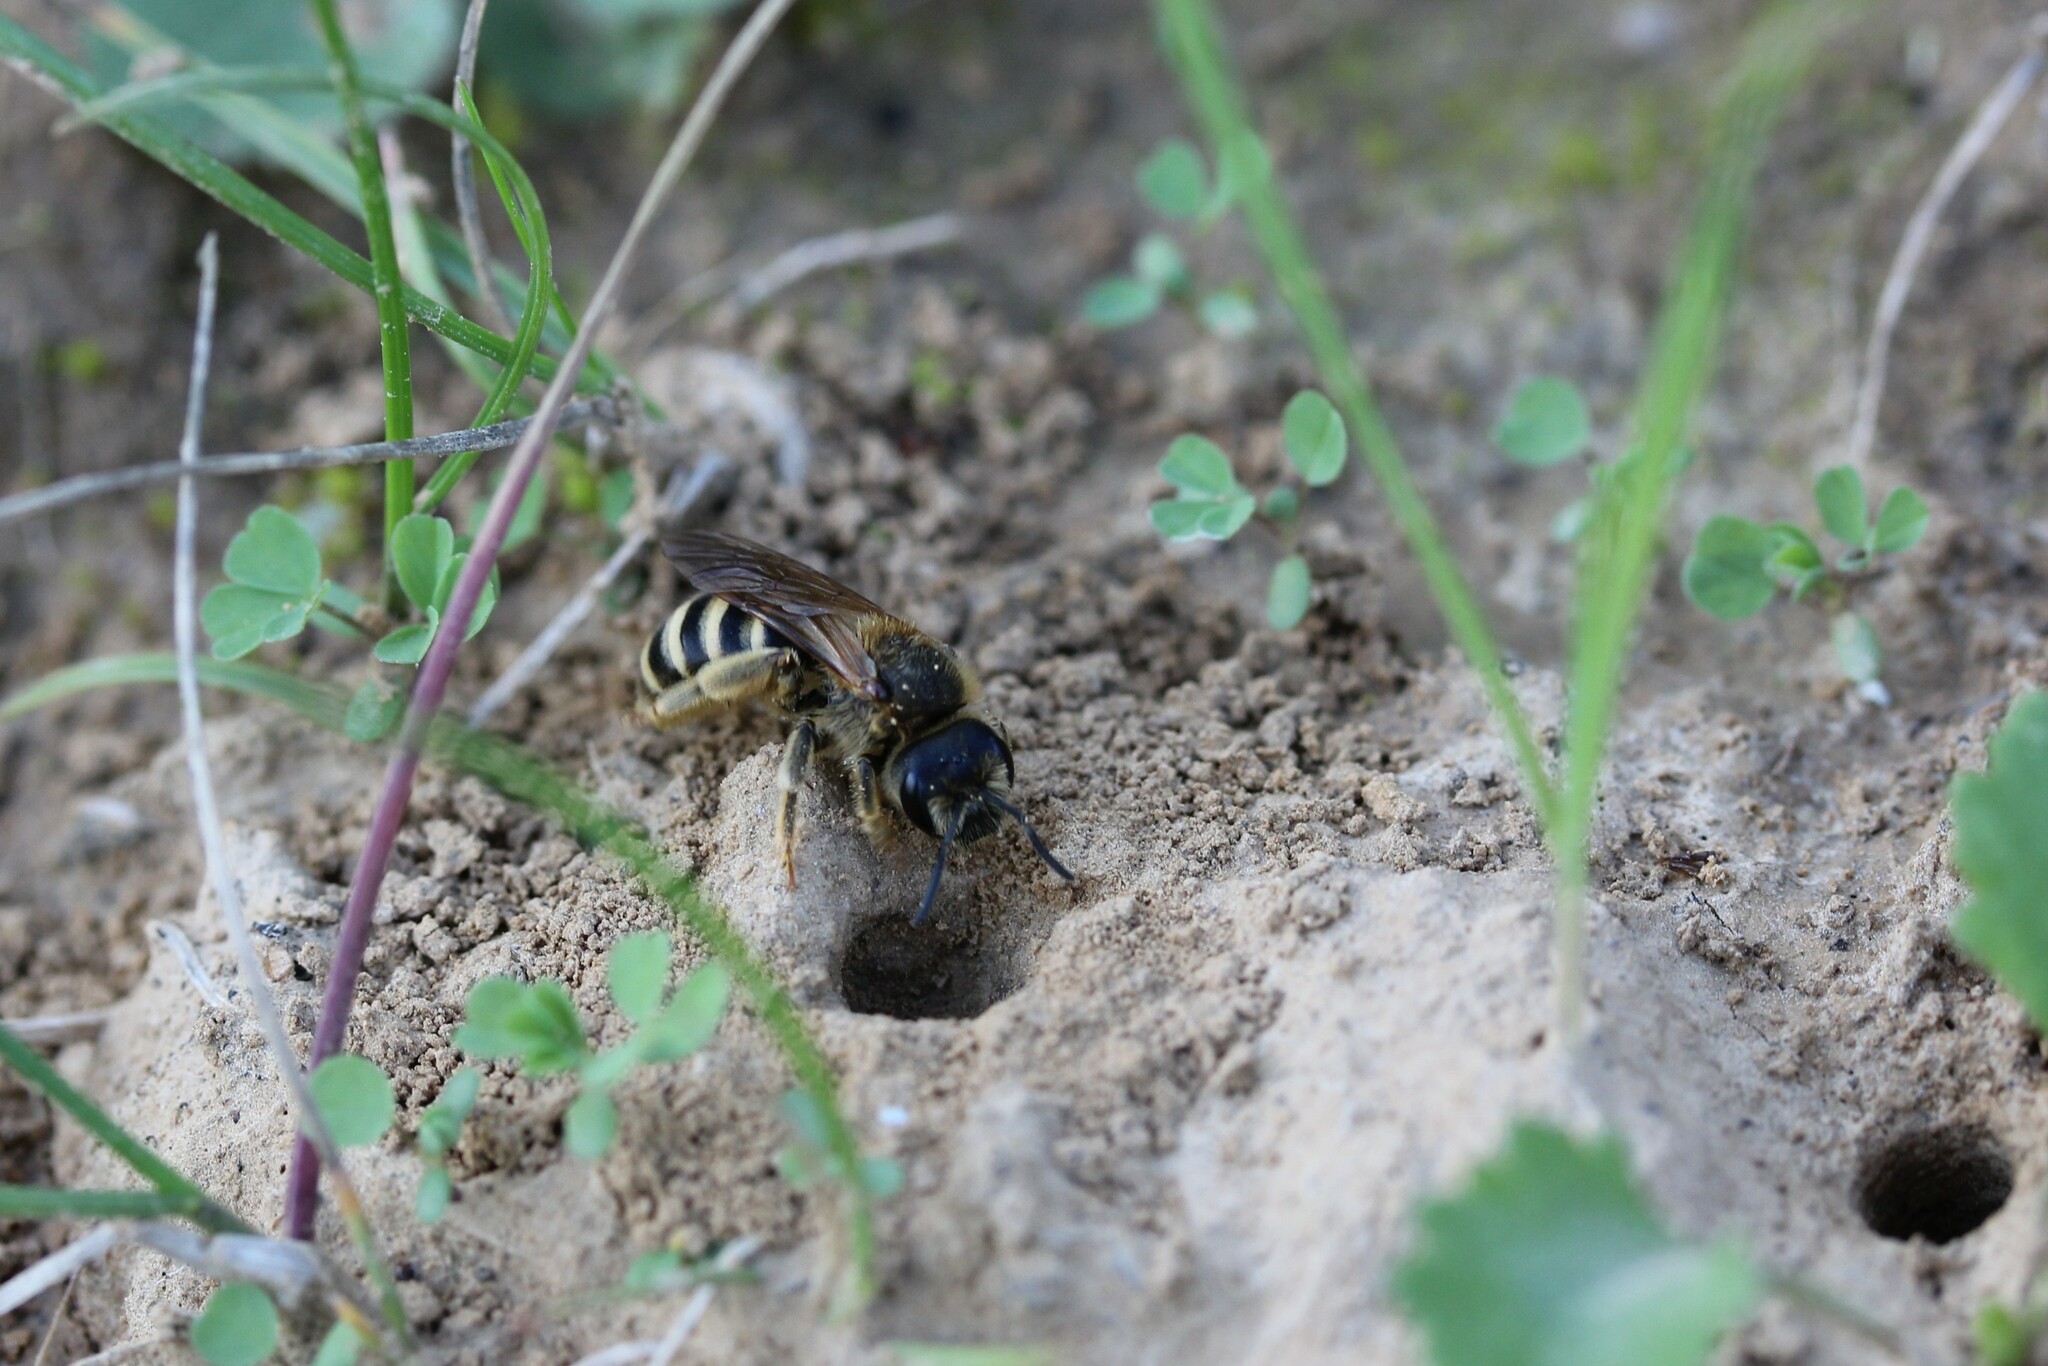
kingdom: Animalia
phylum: Arthropoda
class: Insecta
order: Hymenoptera
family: Halictidae
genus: Halictus
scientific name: Halictus scabiosae
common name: Great banded furrow bee
